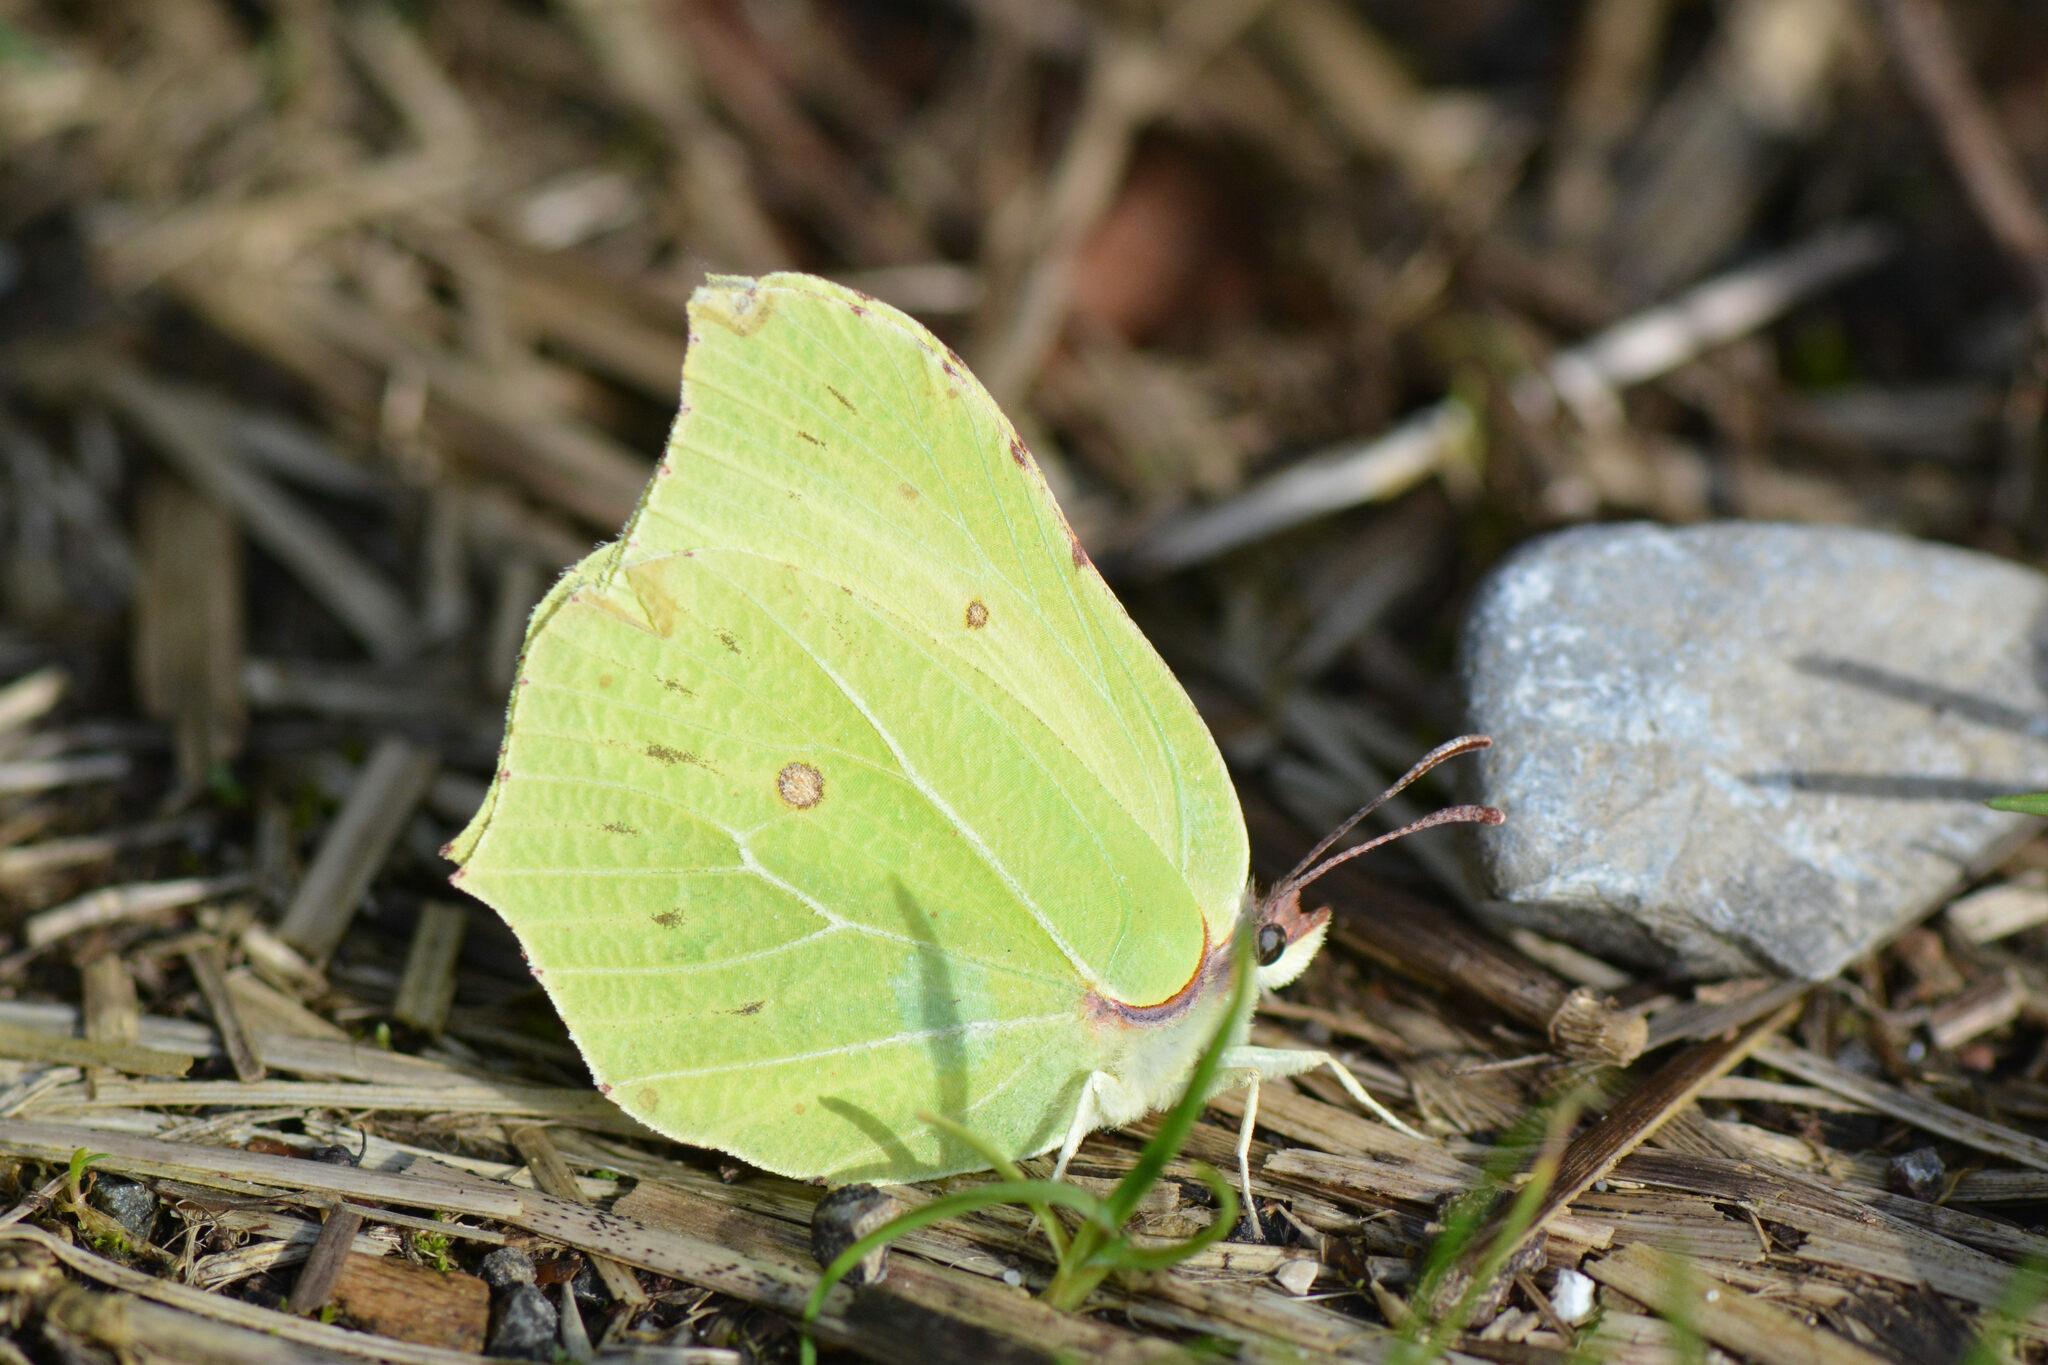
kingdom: Animalia
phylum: Arthropoda
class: Insecta
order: Lepidoptera
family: Pieridae
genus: Gonepteryx
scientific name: Gonepteryx rhamni
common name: Brimstone
